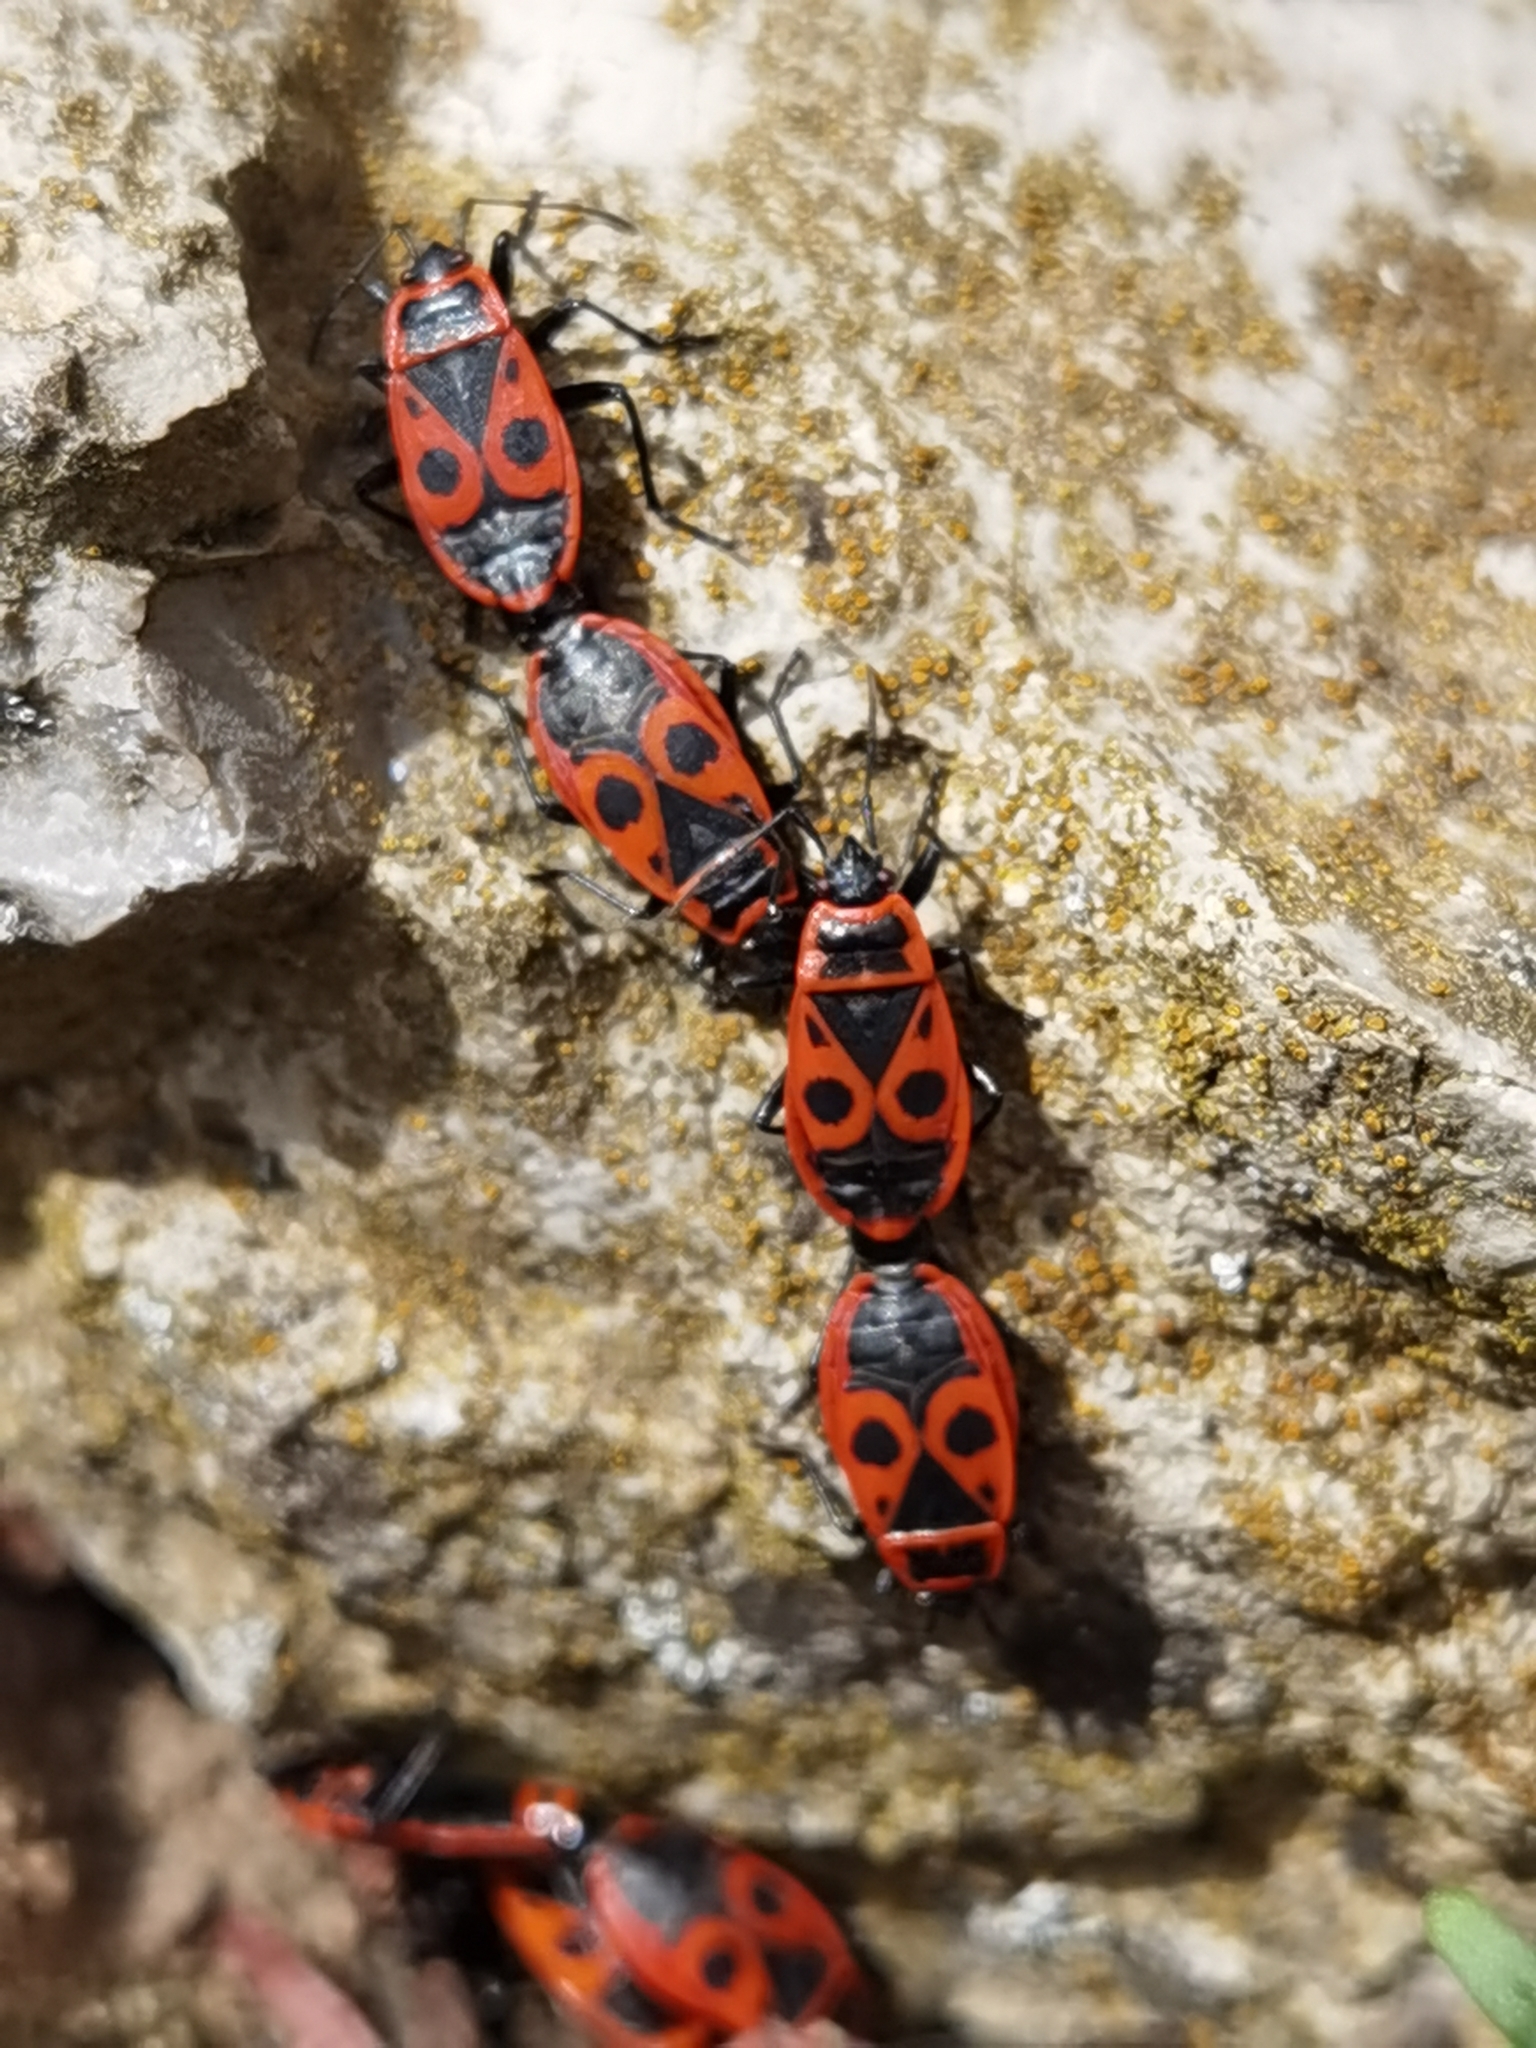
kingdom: Animalia
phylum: Arthropoda
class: Insecta
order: Hemiptera
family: Pyrrhocoridae
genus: Pyrrhocoris
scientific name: Pyrrhocoris apterus
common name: Firebug
